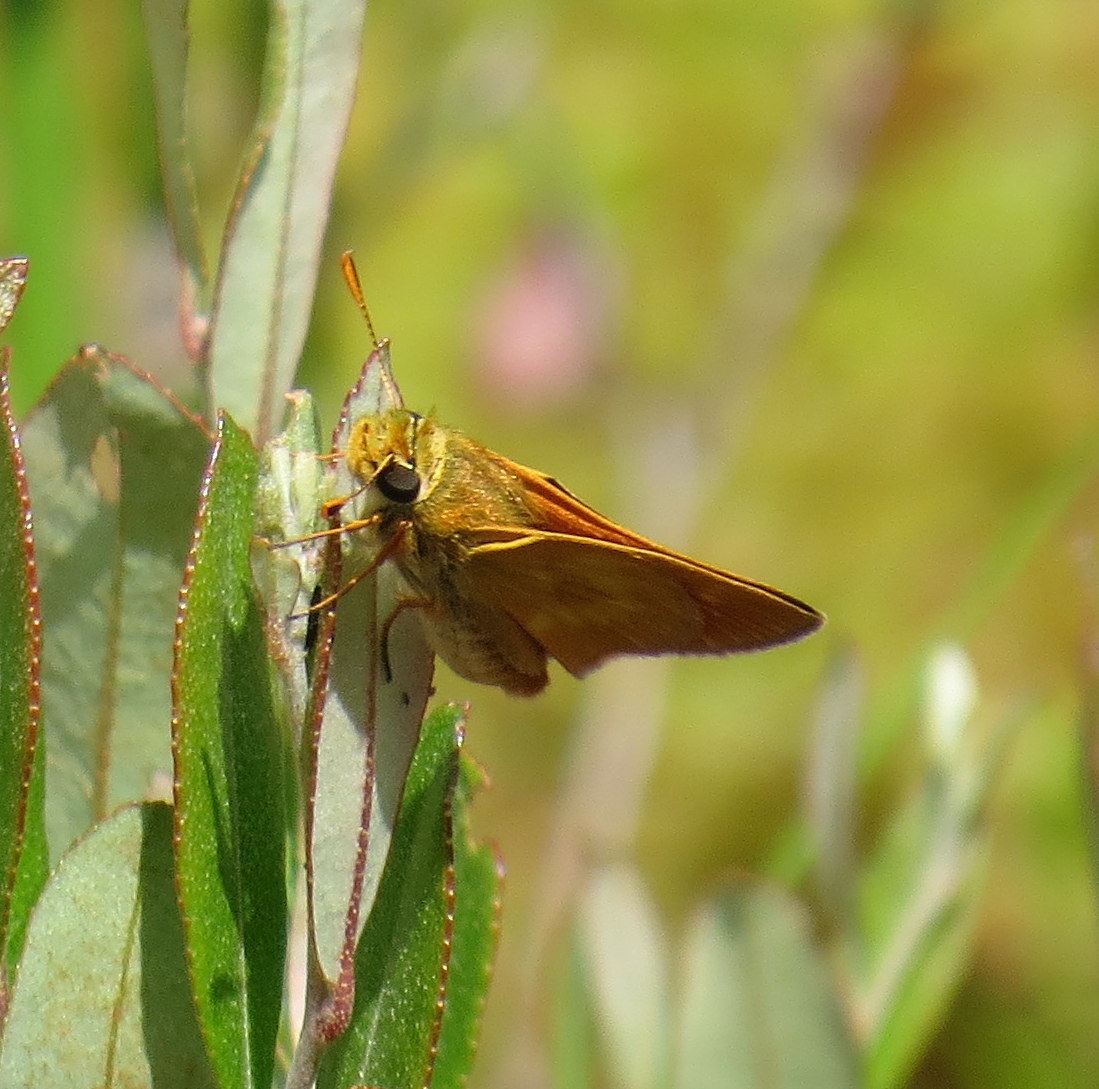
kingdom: Animalia
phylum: Arthropoda
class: Insecta
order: Lepidoptera
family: Hesperiidae
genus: Polites
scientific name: Polites mystic
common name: Long dash
